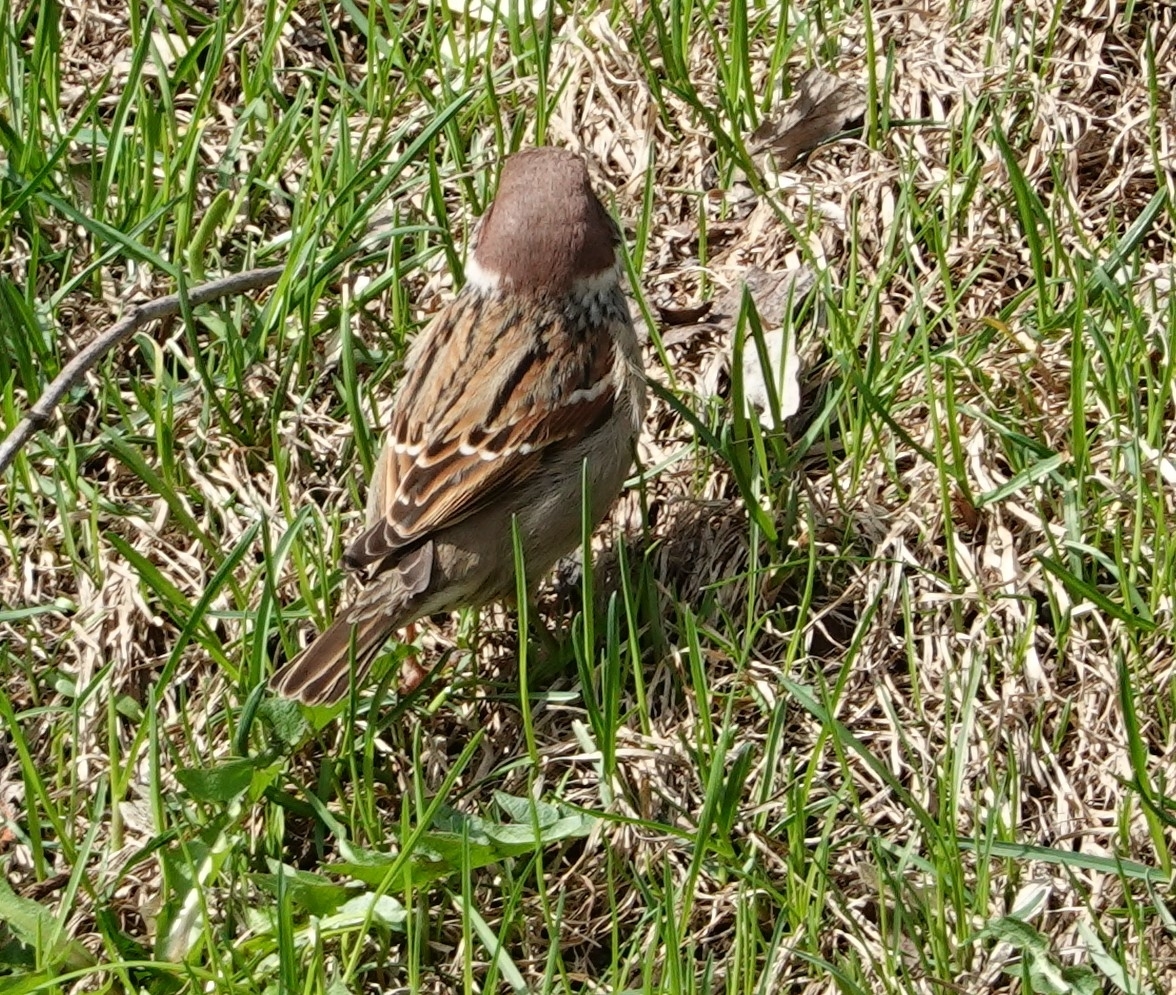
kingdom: Animalia
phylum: Chordata
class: Aves
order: Passeriformes
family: Passeridae
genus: Passer
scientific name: Passer montanus
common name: Eurasian tree sparrow
